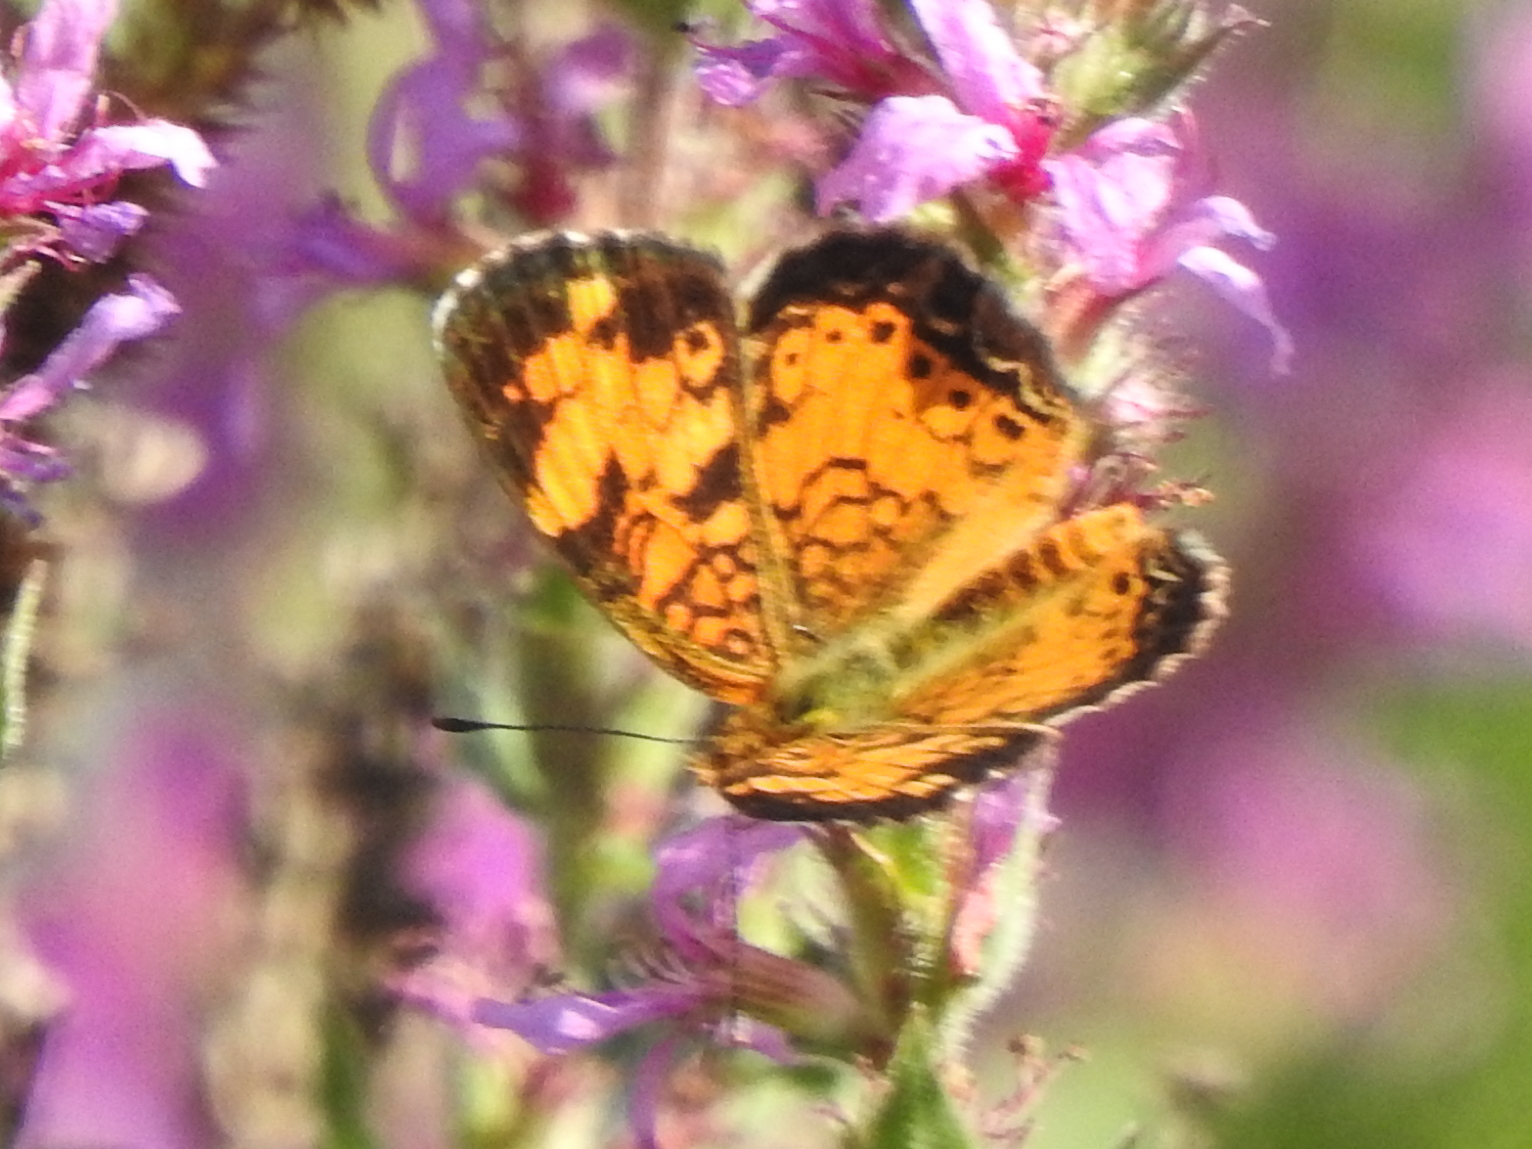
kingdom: Animalia
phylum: Arthropoda
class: Insecta
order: Lepidoptera
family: Nymphalidae
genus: Phyciodes
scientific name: Phyciodes tharos
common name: Pearl crescent
